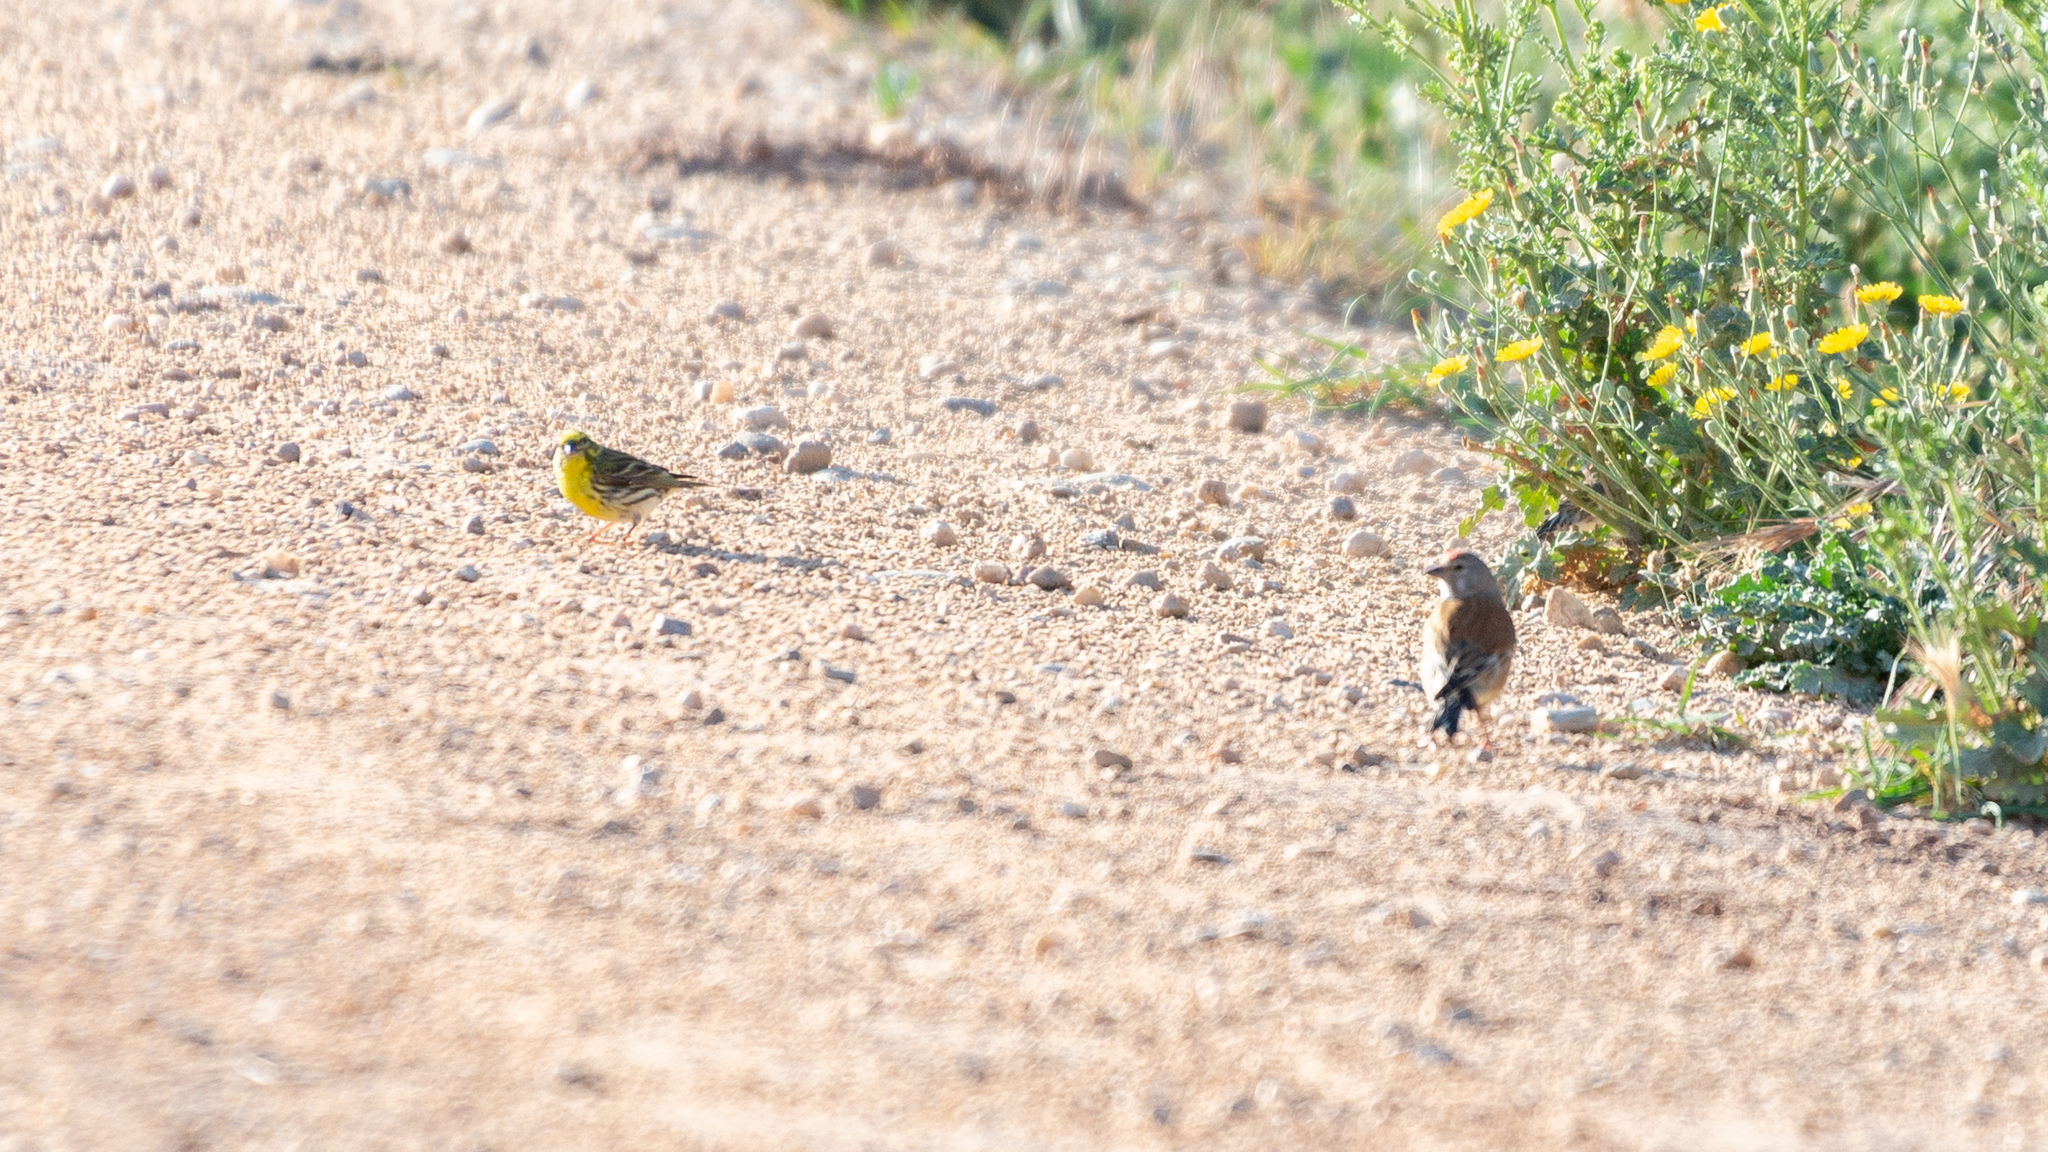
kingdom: Animalia
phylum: Chordata
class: Aves
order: Passeriformes
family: Fringillidae
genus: Serinus
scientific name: Serinus serinus
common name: European serin
